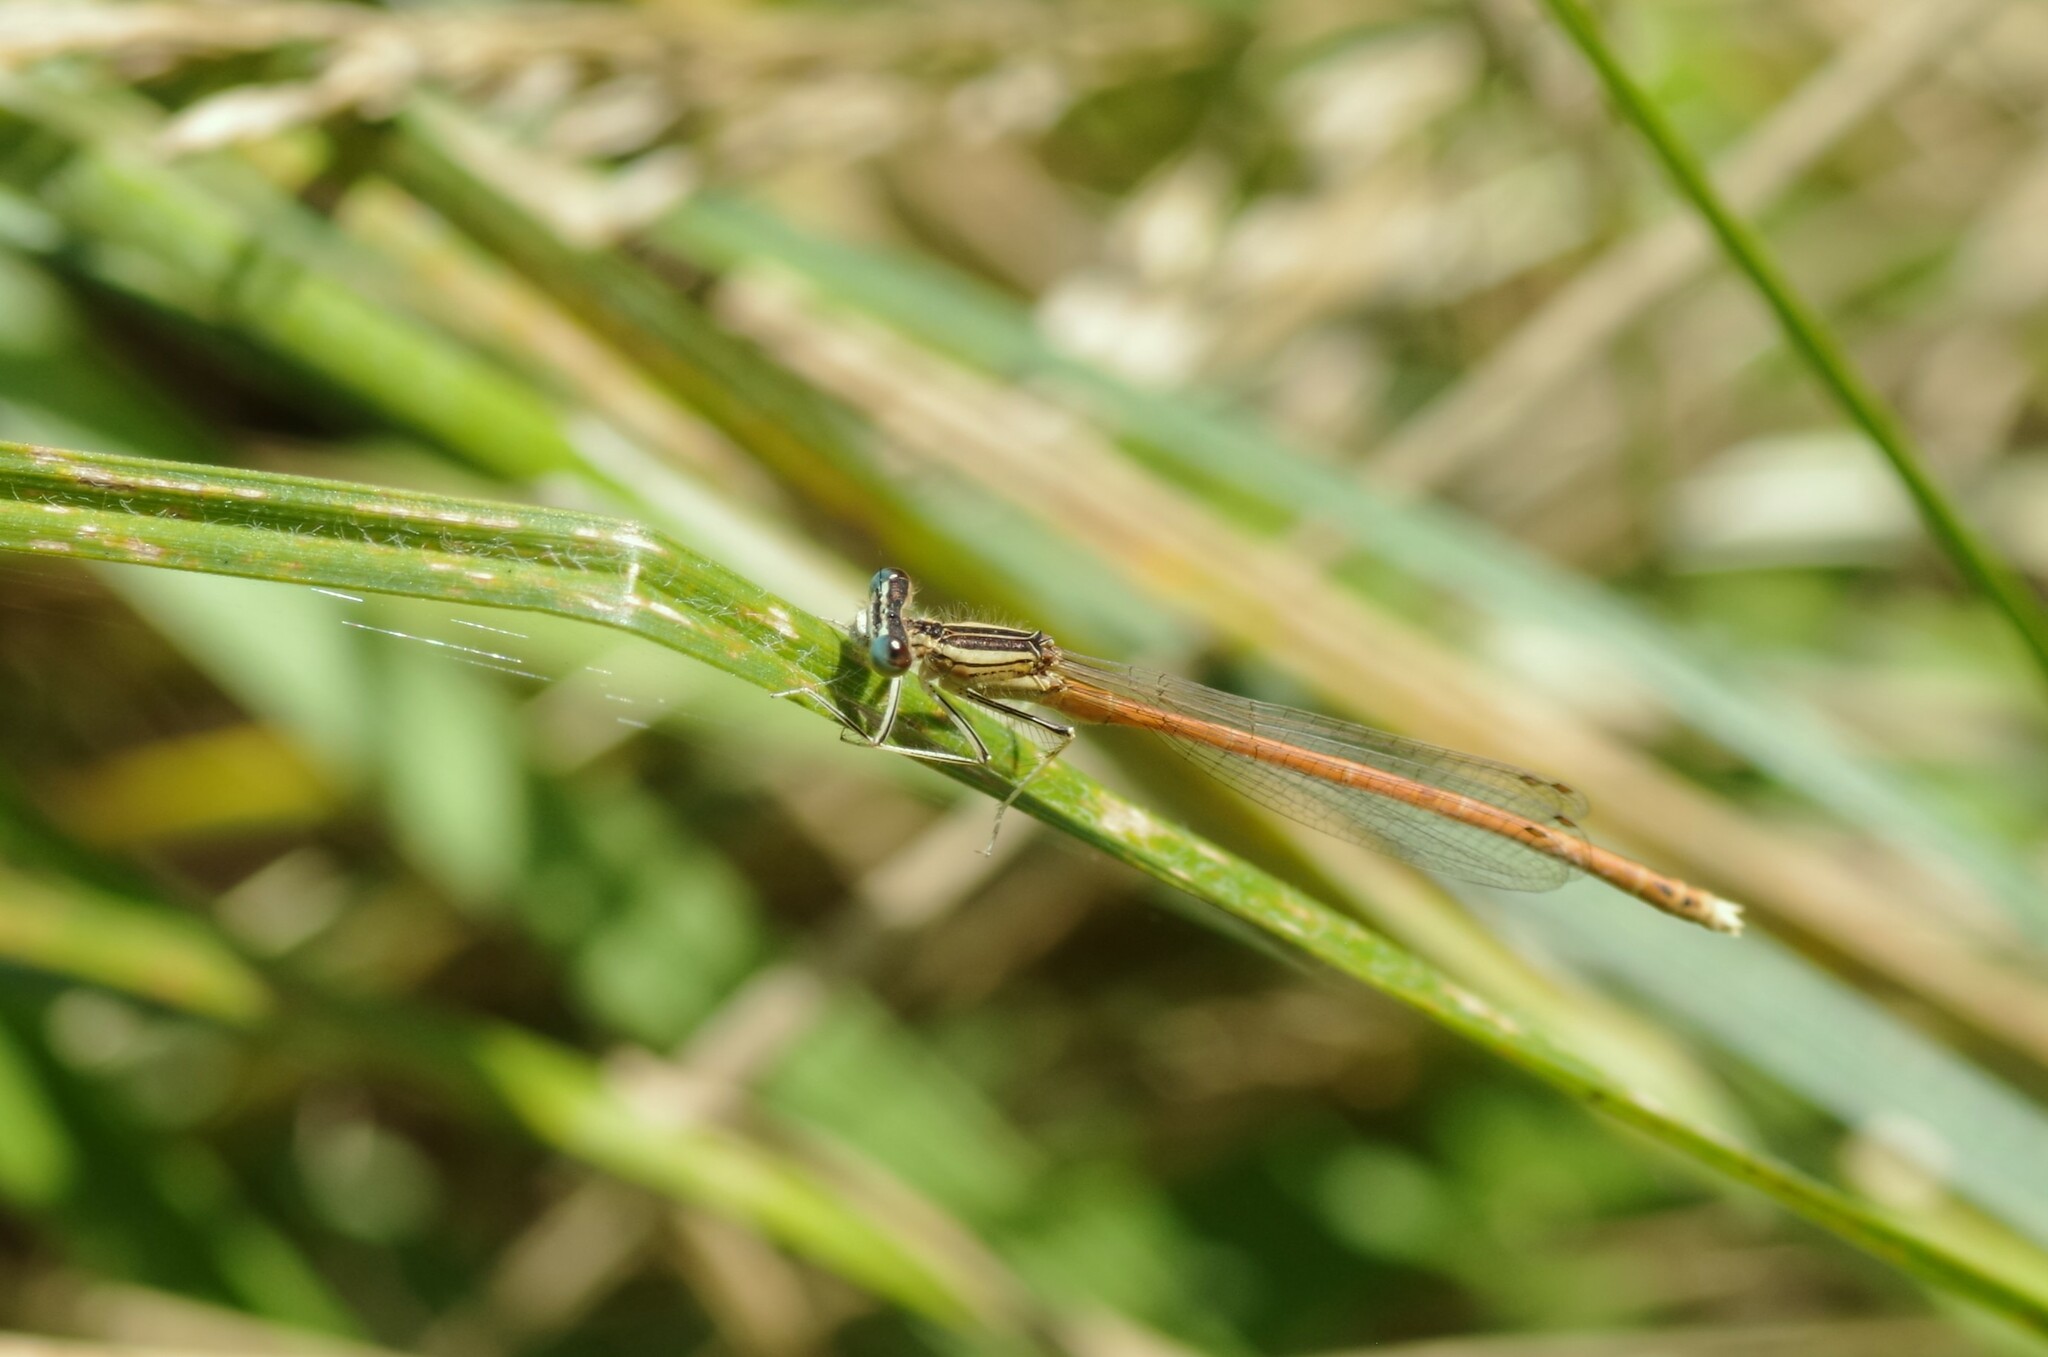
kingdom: Animalia
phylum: Arthropoda
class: Insecta
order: Odonata
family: Platycnemididae
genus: Platycnemis
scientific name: Platycnemis acutipennis
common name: Orange featherleg
